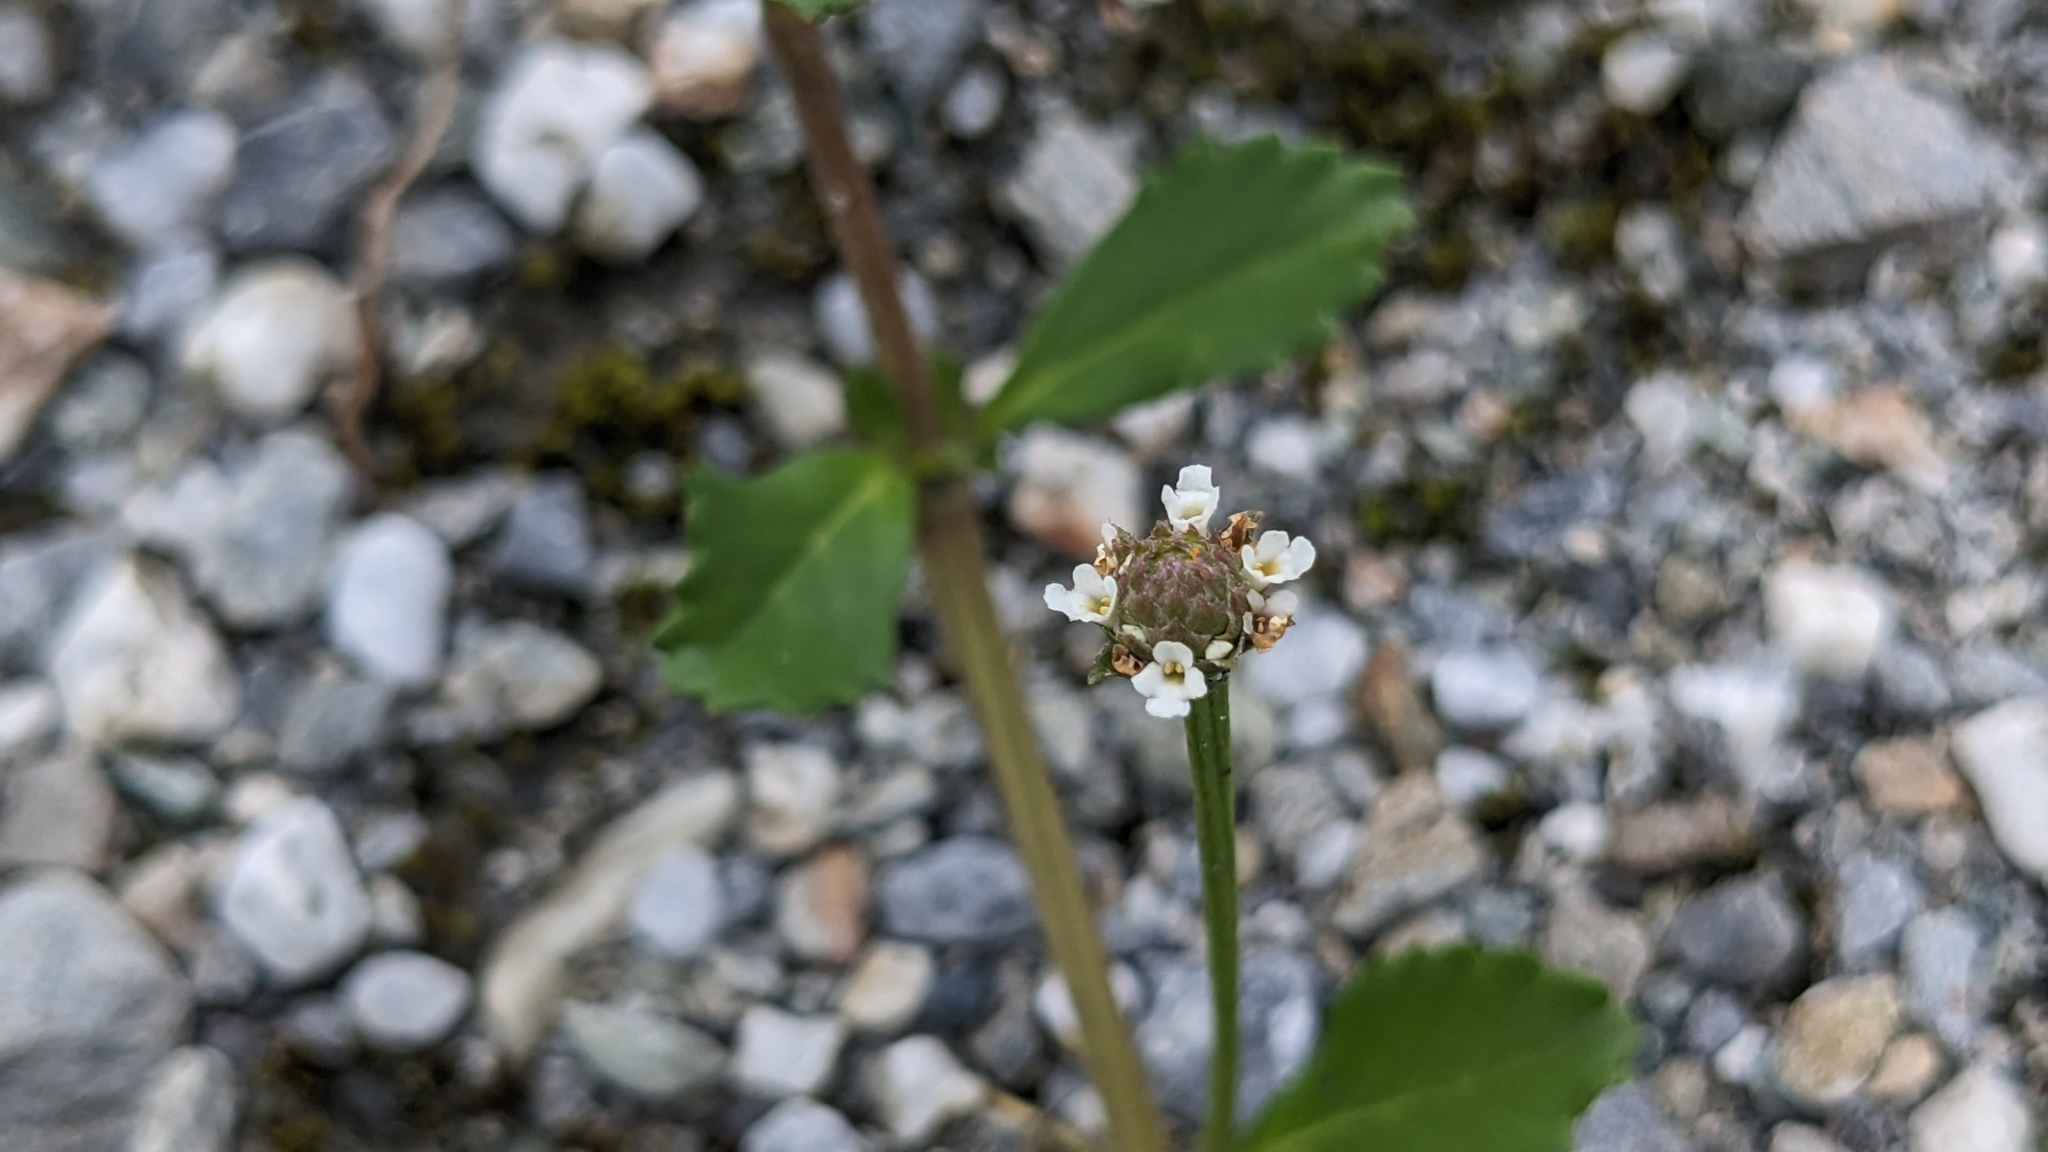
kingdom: Plantae
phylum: Tracheophyta
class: Magnoliopsida
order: Lamiales
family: Verbenaceae
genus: Phyla
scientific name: Phyla nodiflora
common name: Frogfruit
